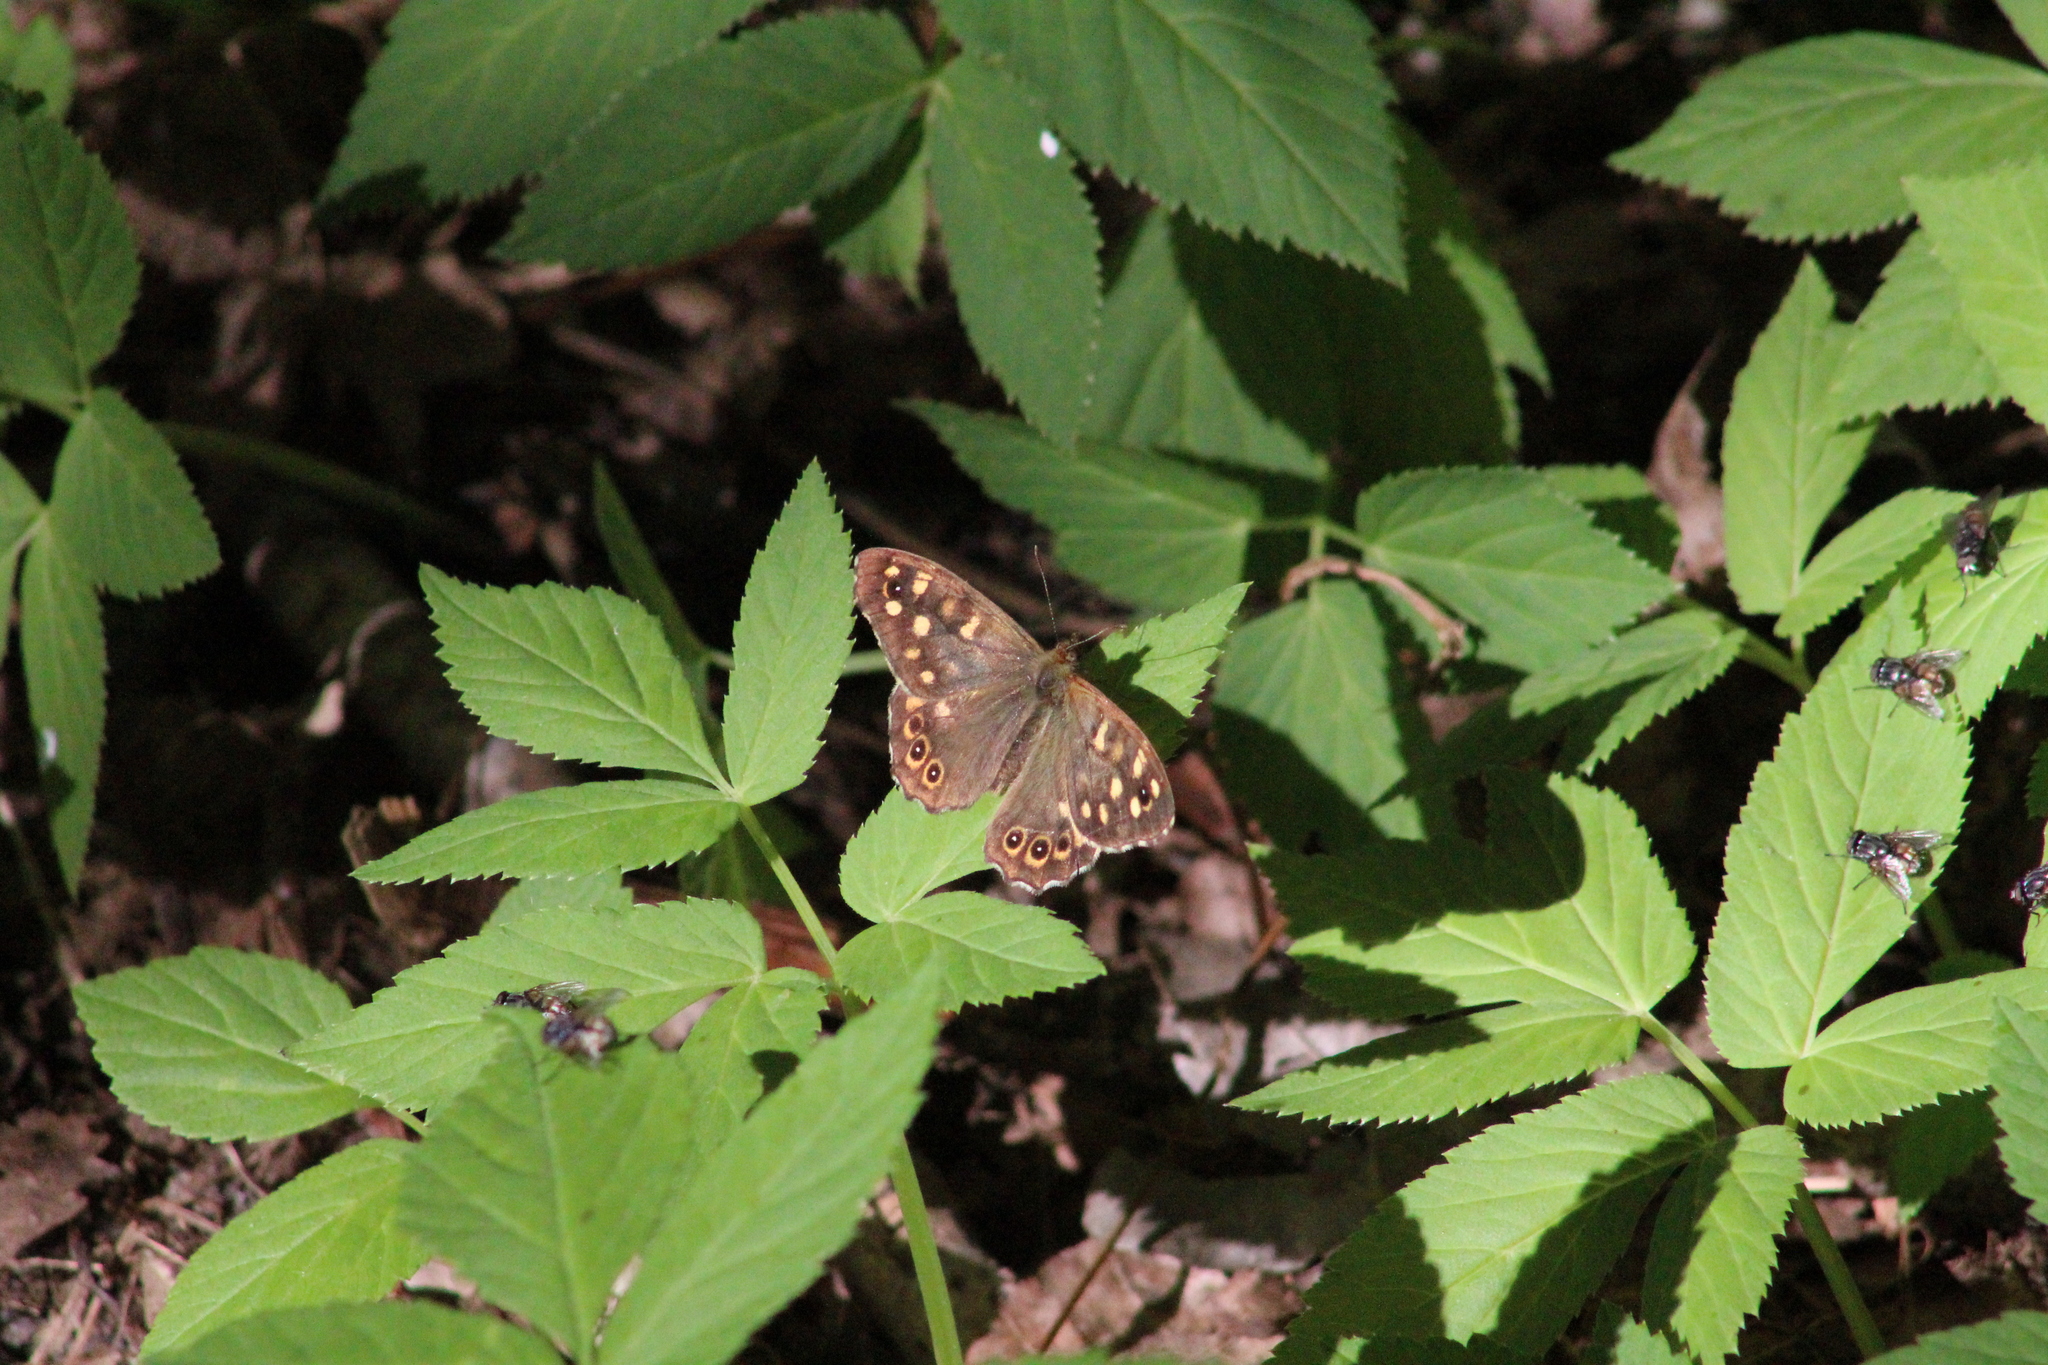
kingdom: Animalia
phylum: Arthropoda
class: Insecta
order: Lepidoptera
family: Nymphalidae
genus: Pararge
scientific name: Pararge aegeria
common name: Speckled wood
